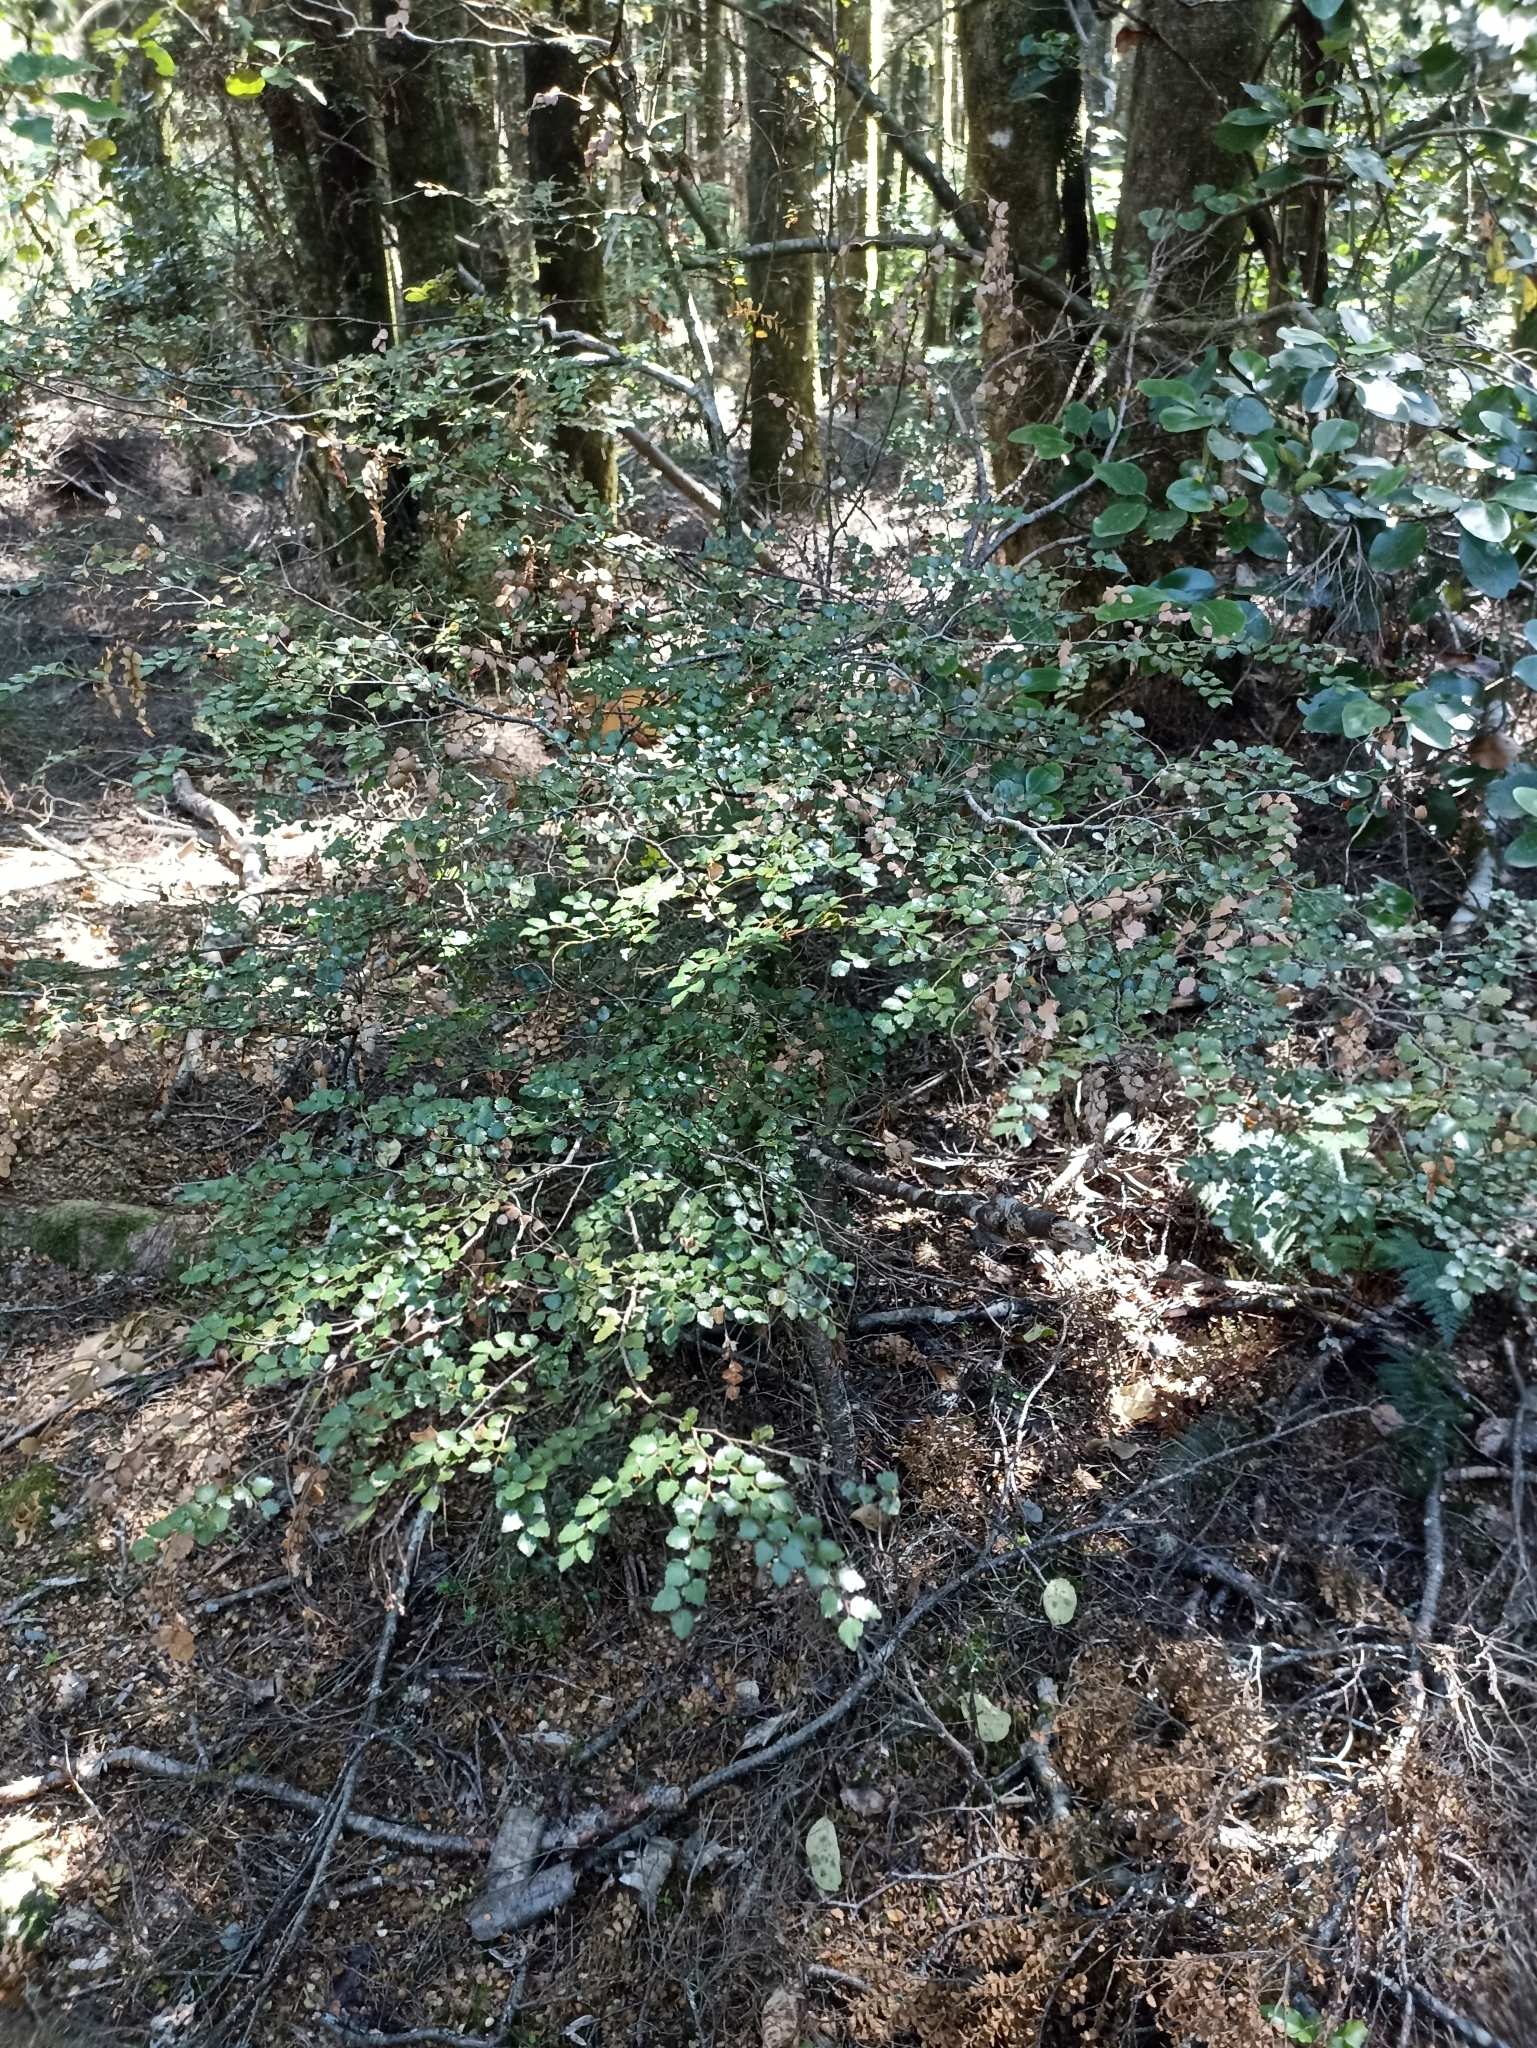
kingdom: Plantae
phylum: Tracheophyta
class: Magnoliopsida
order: Fagales
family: Nothofagaceae
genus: Nothofagus
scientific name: Nothofagus menziesii
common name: Silver beech
